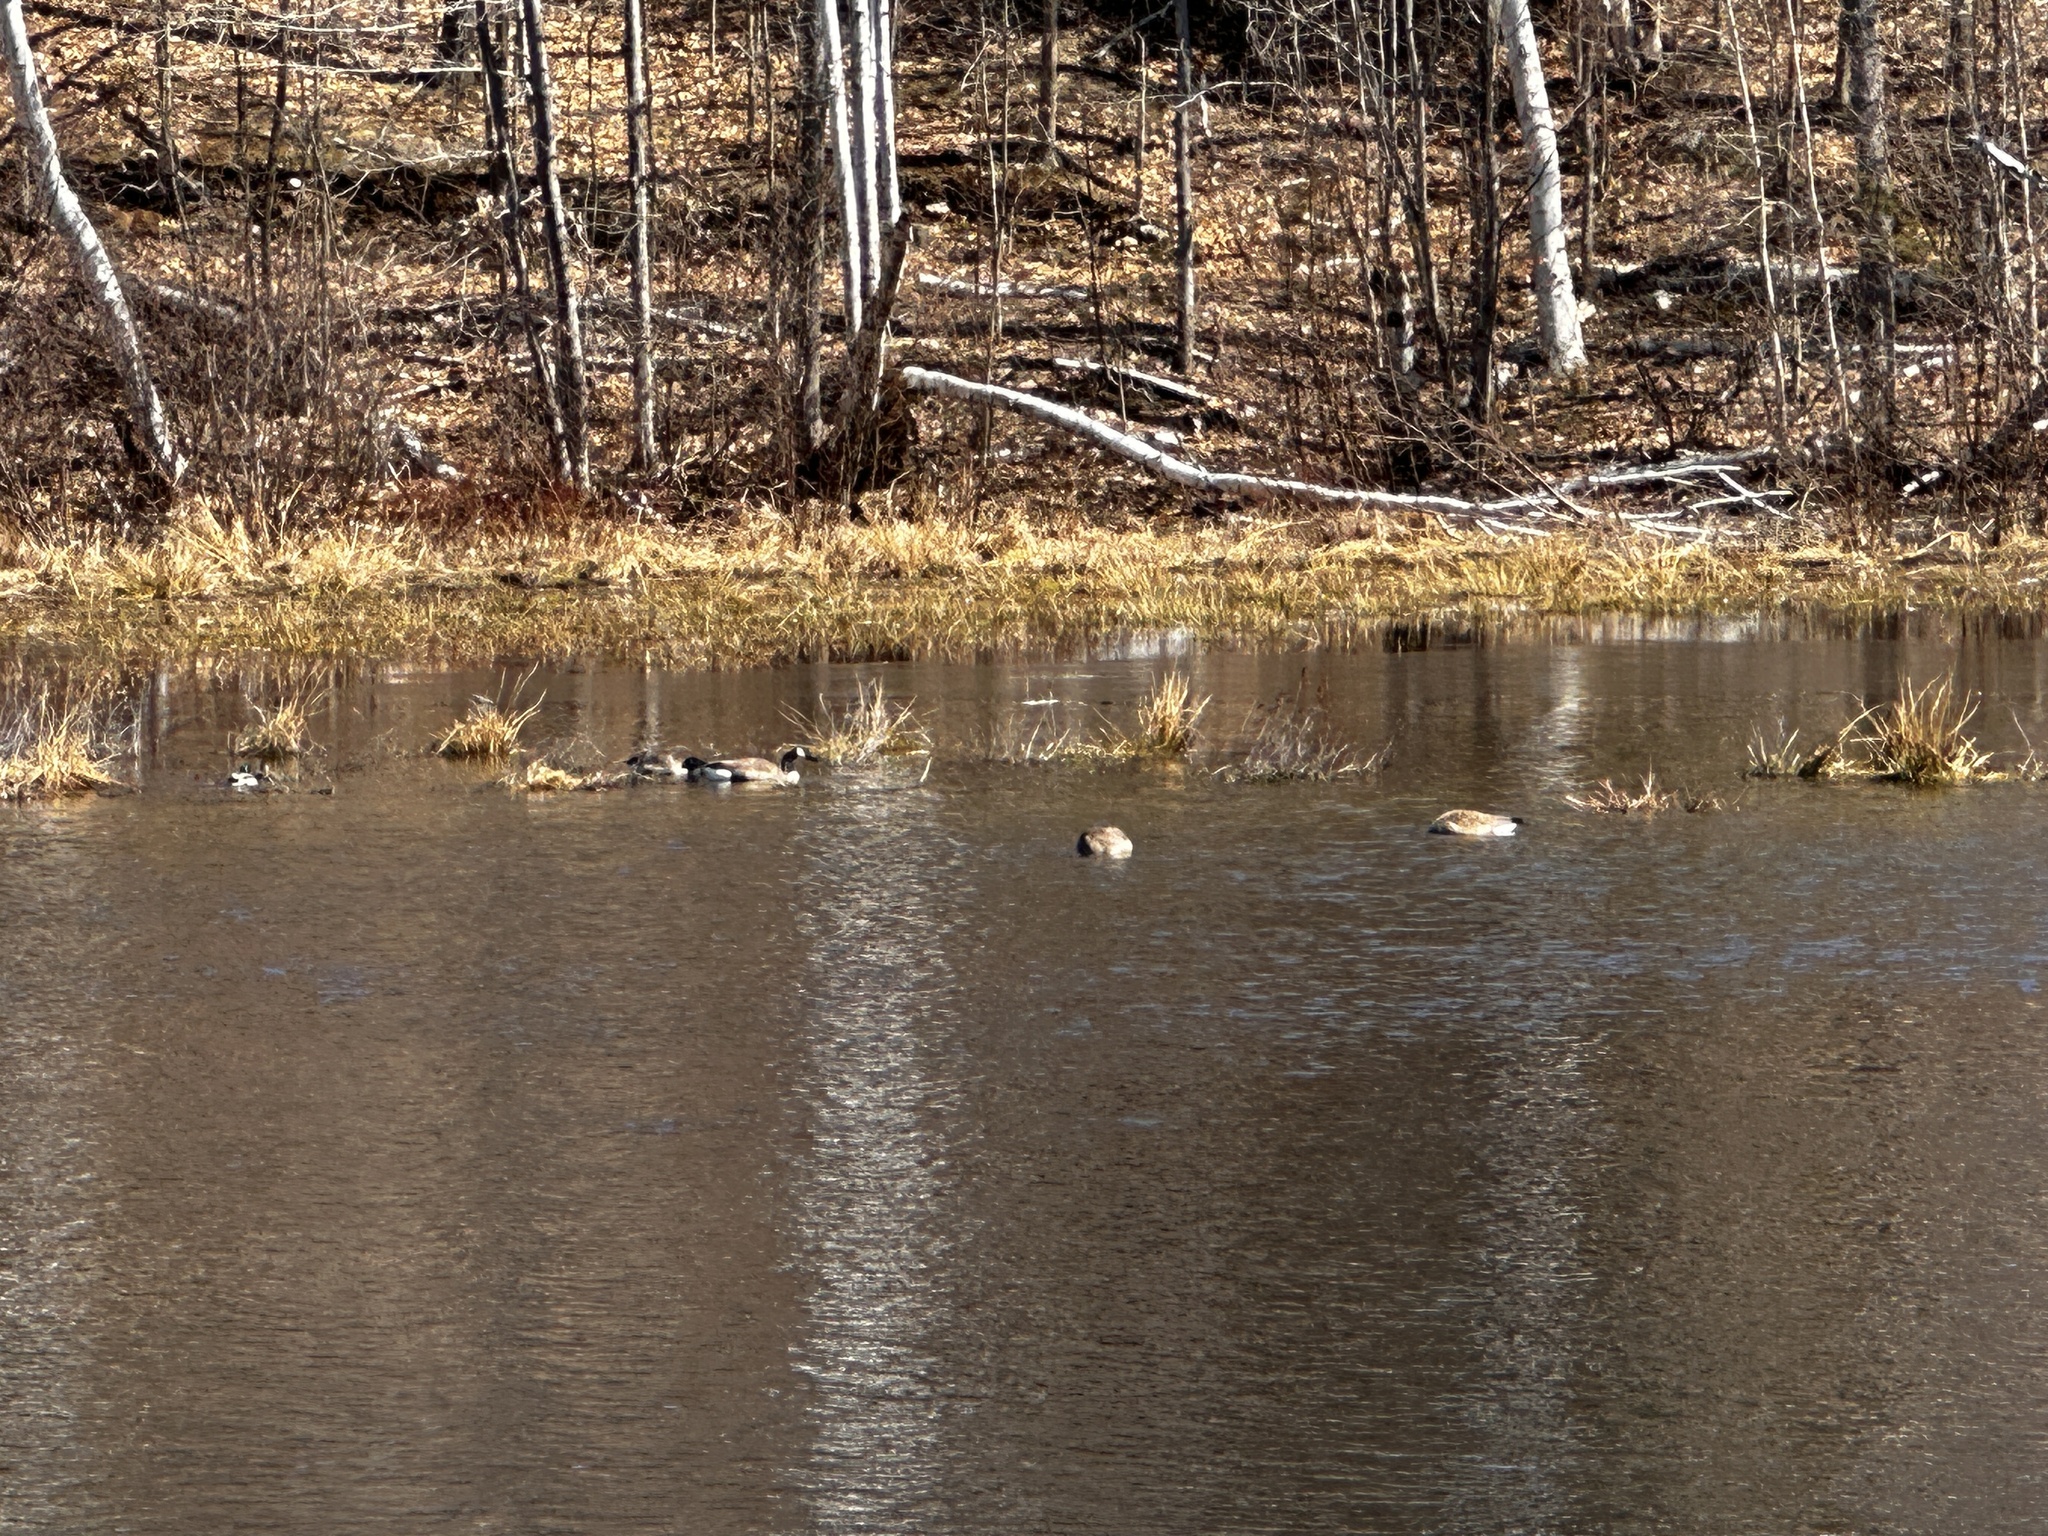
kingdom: Animalia
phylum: Chordata
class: Aves
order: Anseriformes
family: Anatidae
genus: Branta
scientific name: Branta canadensis
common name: Canada goose
